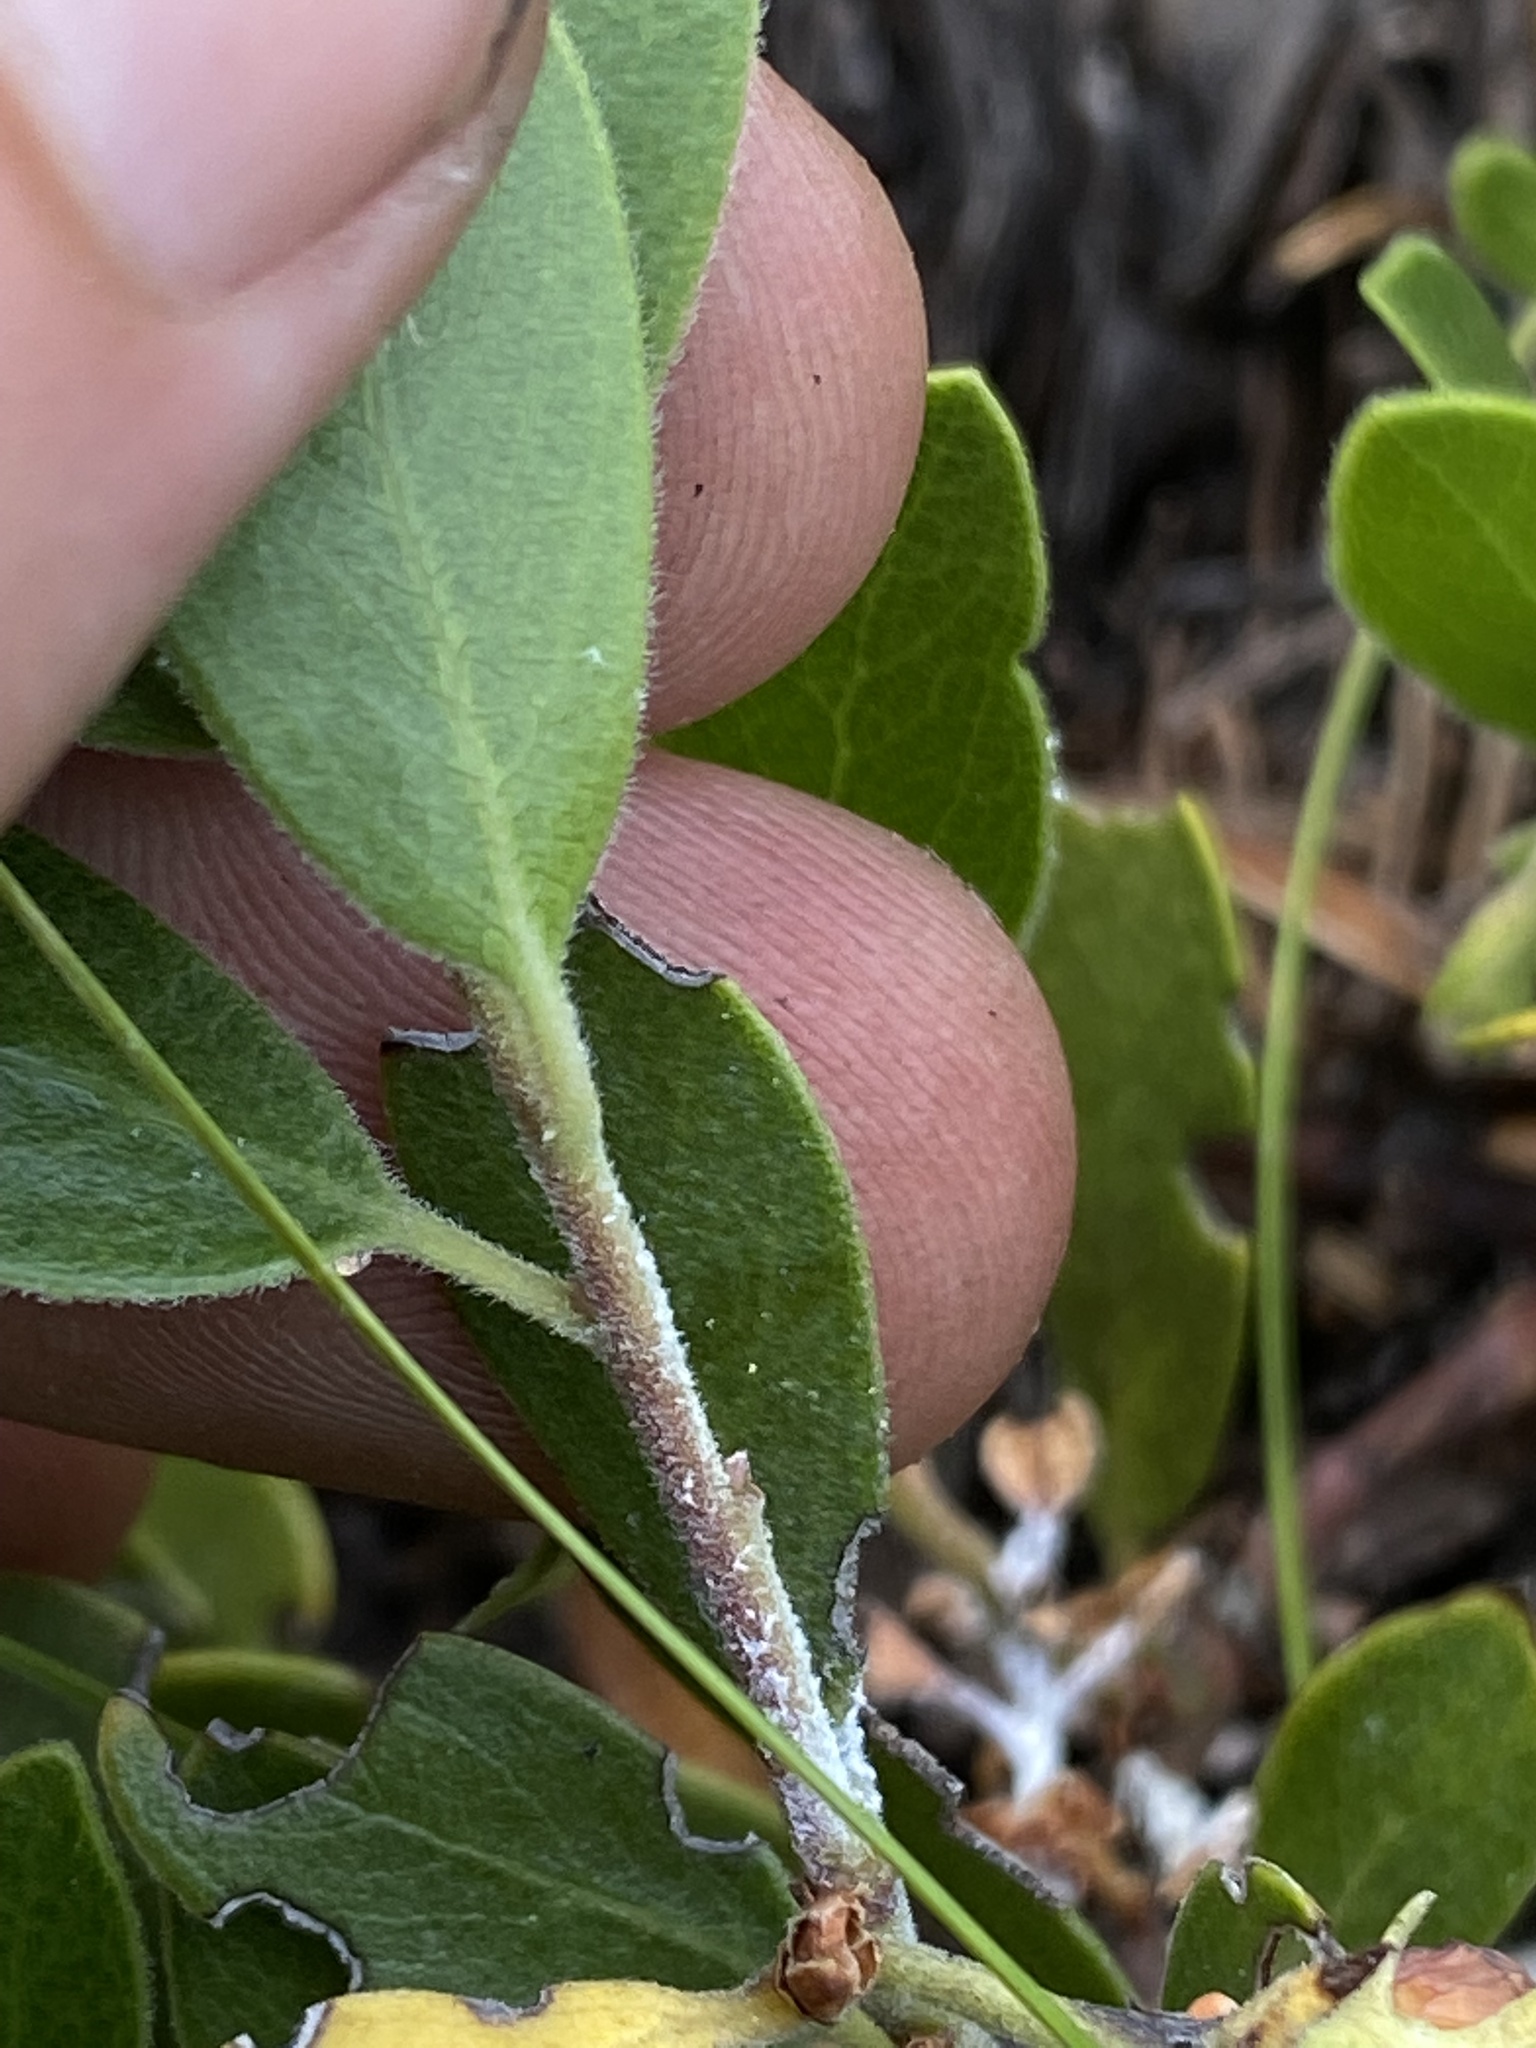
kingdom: Plantae
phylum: Tracheophyta
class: Magnoliopsida
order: Ericales
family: Ericaceae
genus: Arctostaphylos
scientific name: Arctostaphylos nevadensis
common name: Pinemat manzanita
